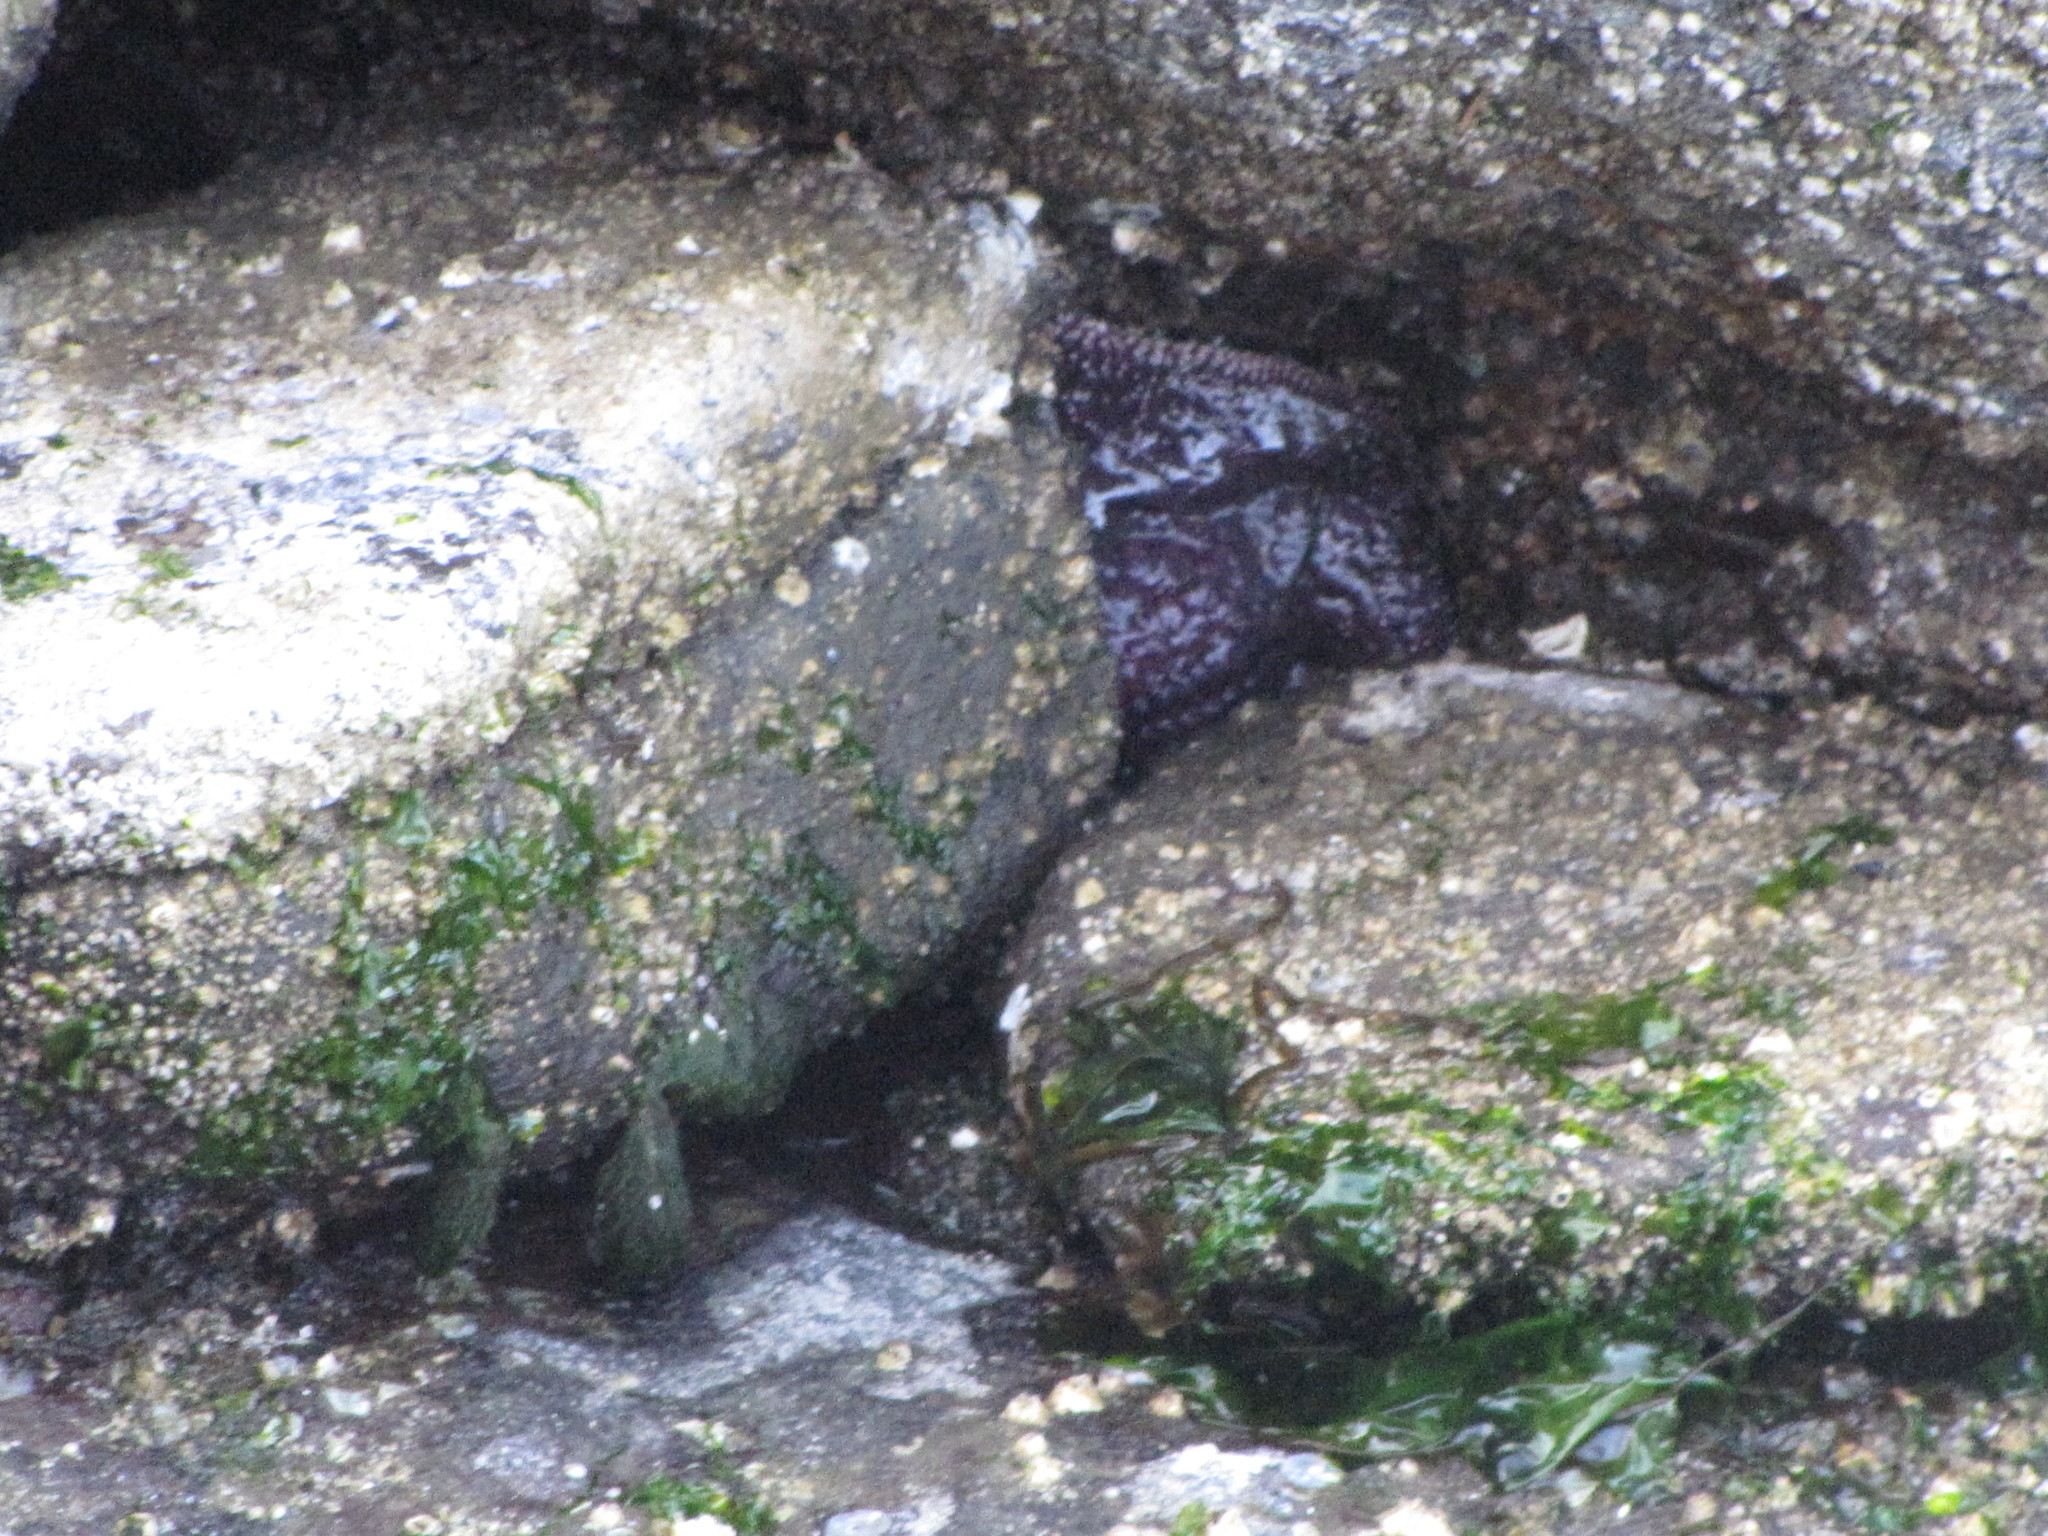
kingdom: Animalia
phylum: Echinodermata
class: Asteroidea
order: Forcipulatida
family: Asteriidae
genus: Pisaster
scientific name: Pisaster ochraceus
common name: Ochre stars
